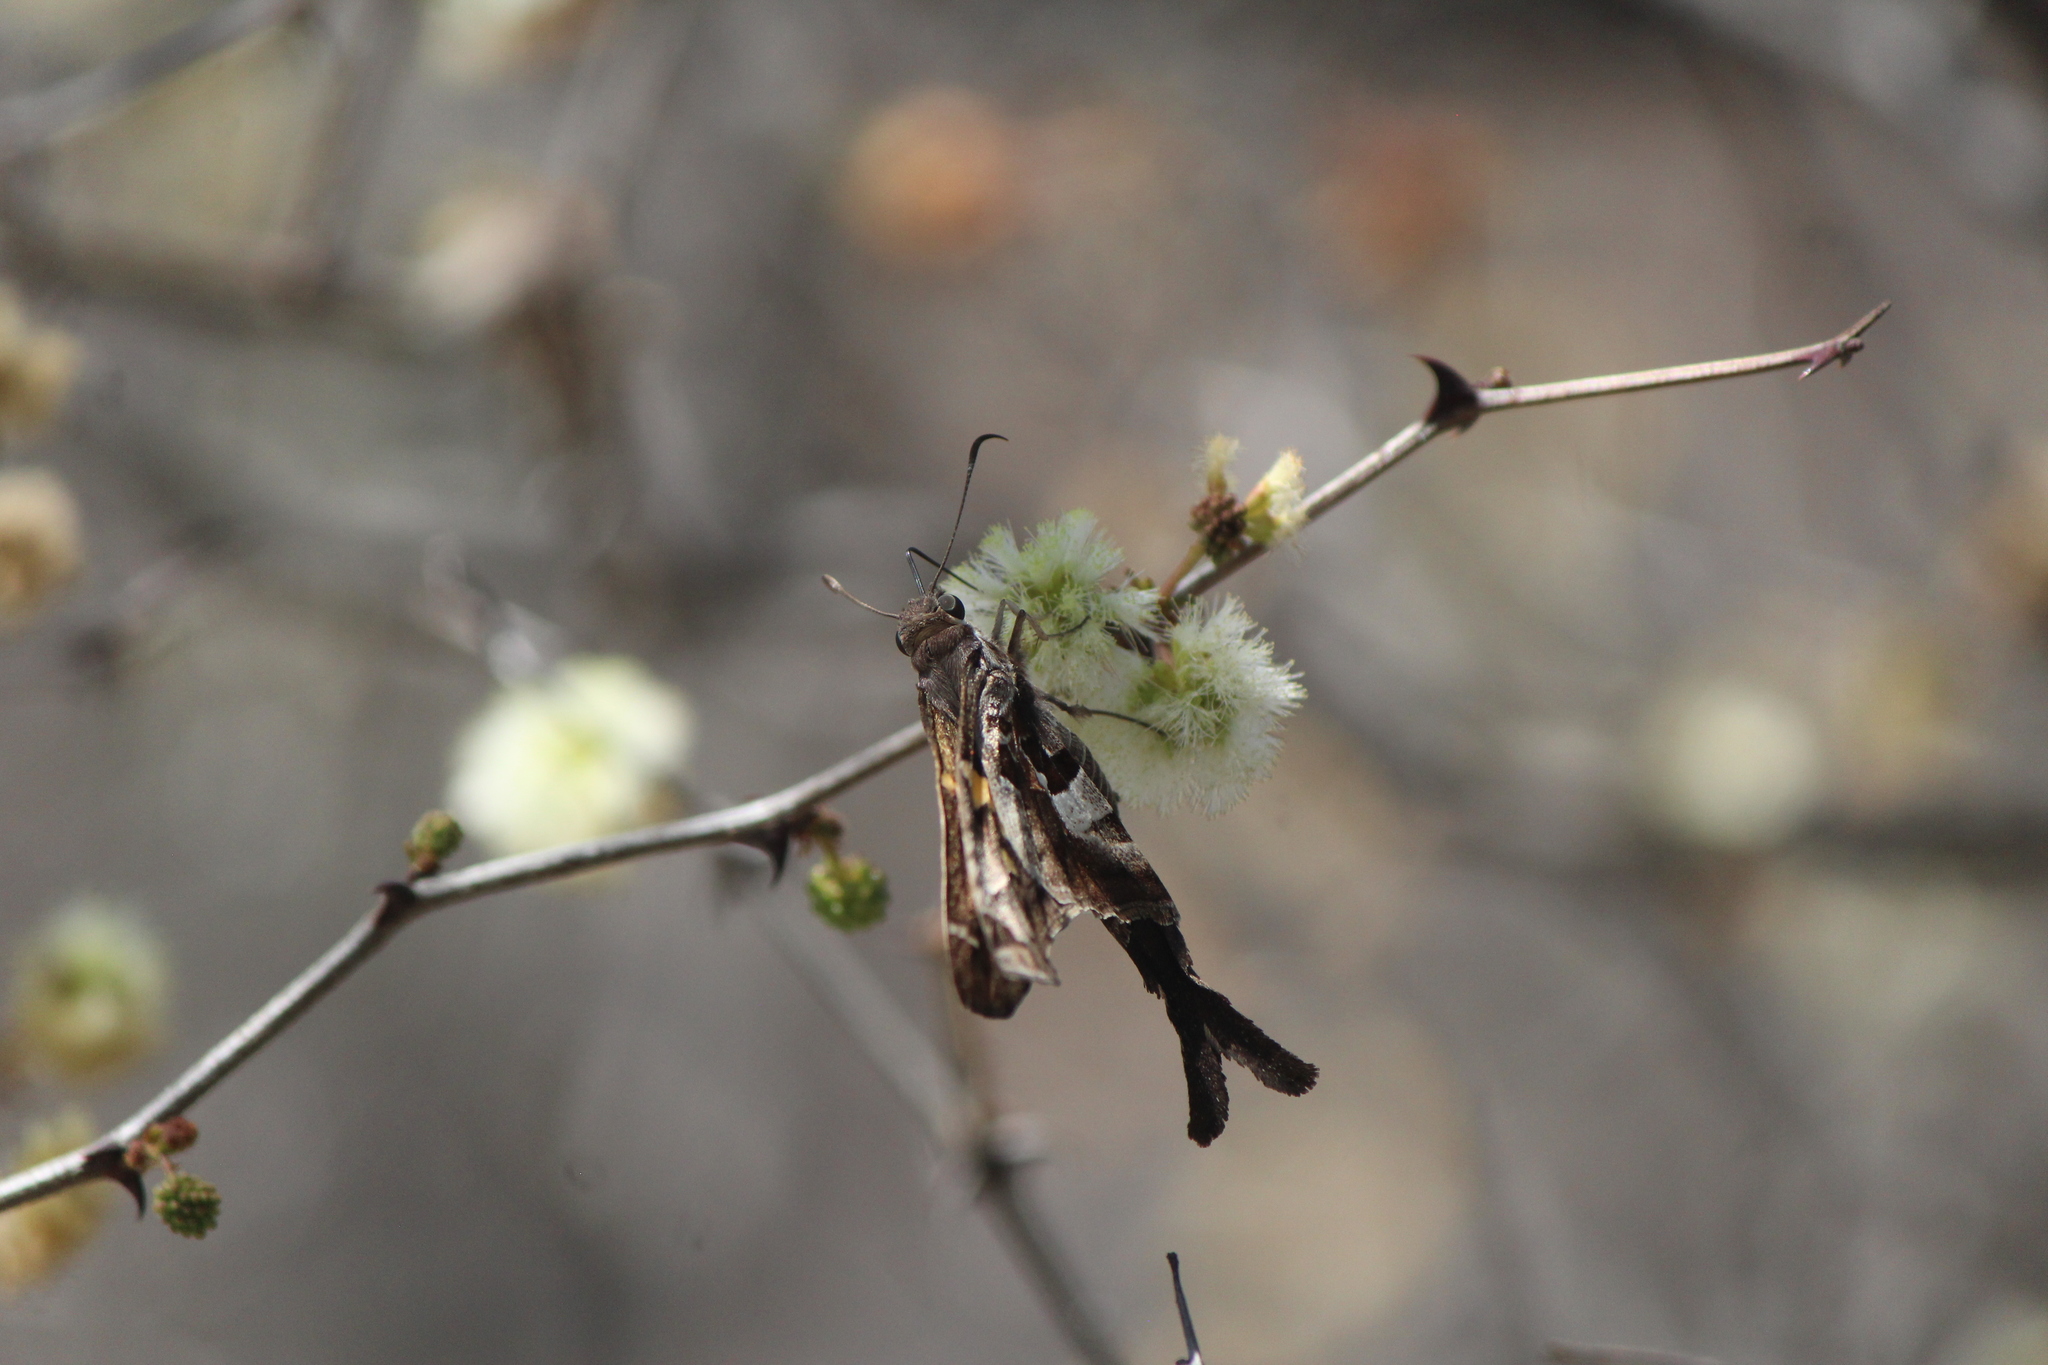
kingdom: Animalia
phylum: Arthropoda
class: Insecta
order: Lepidoptera
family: Hesperiidae
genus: Chioides
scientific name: Chioides zilpa
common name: Zilpa longtail
